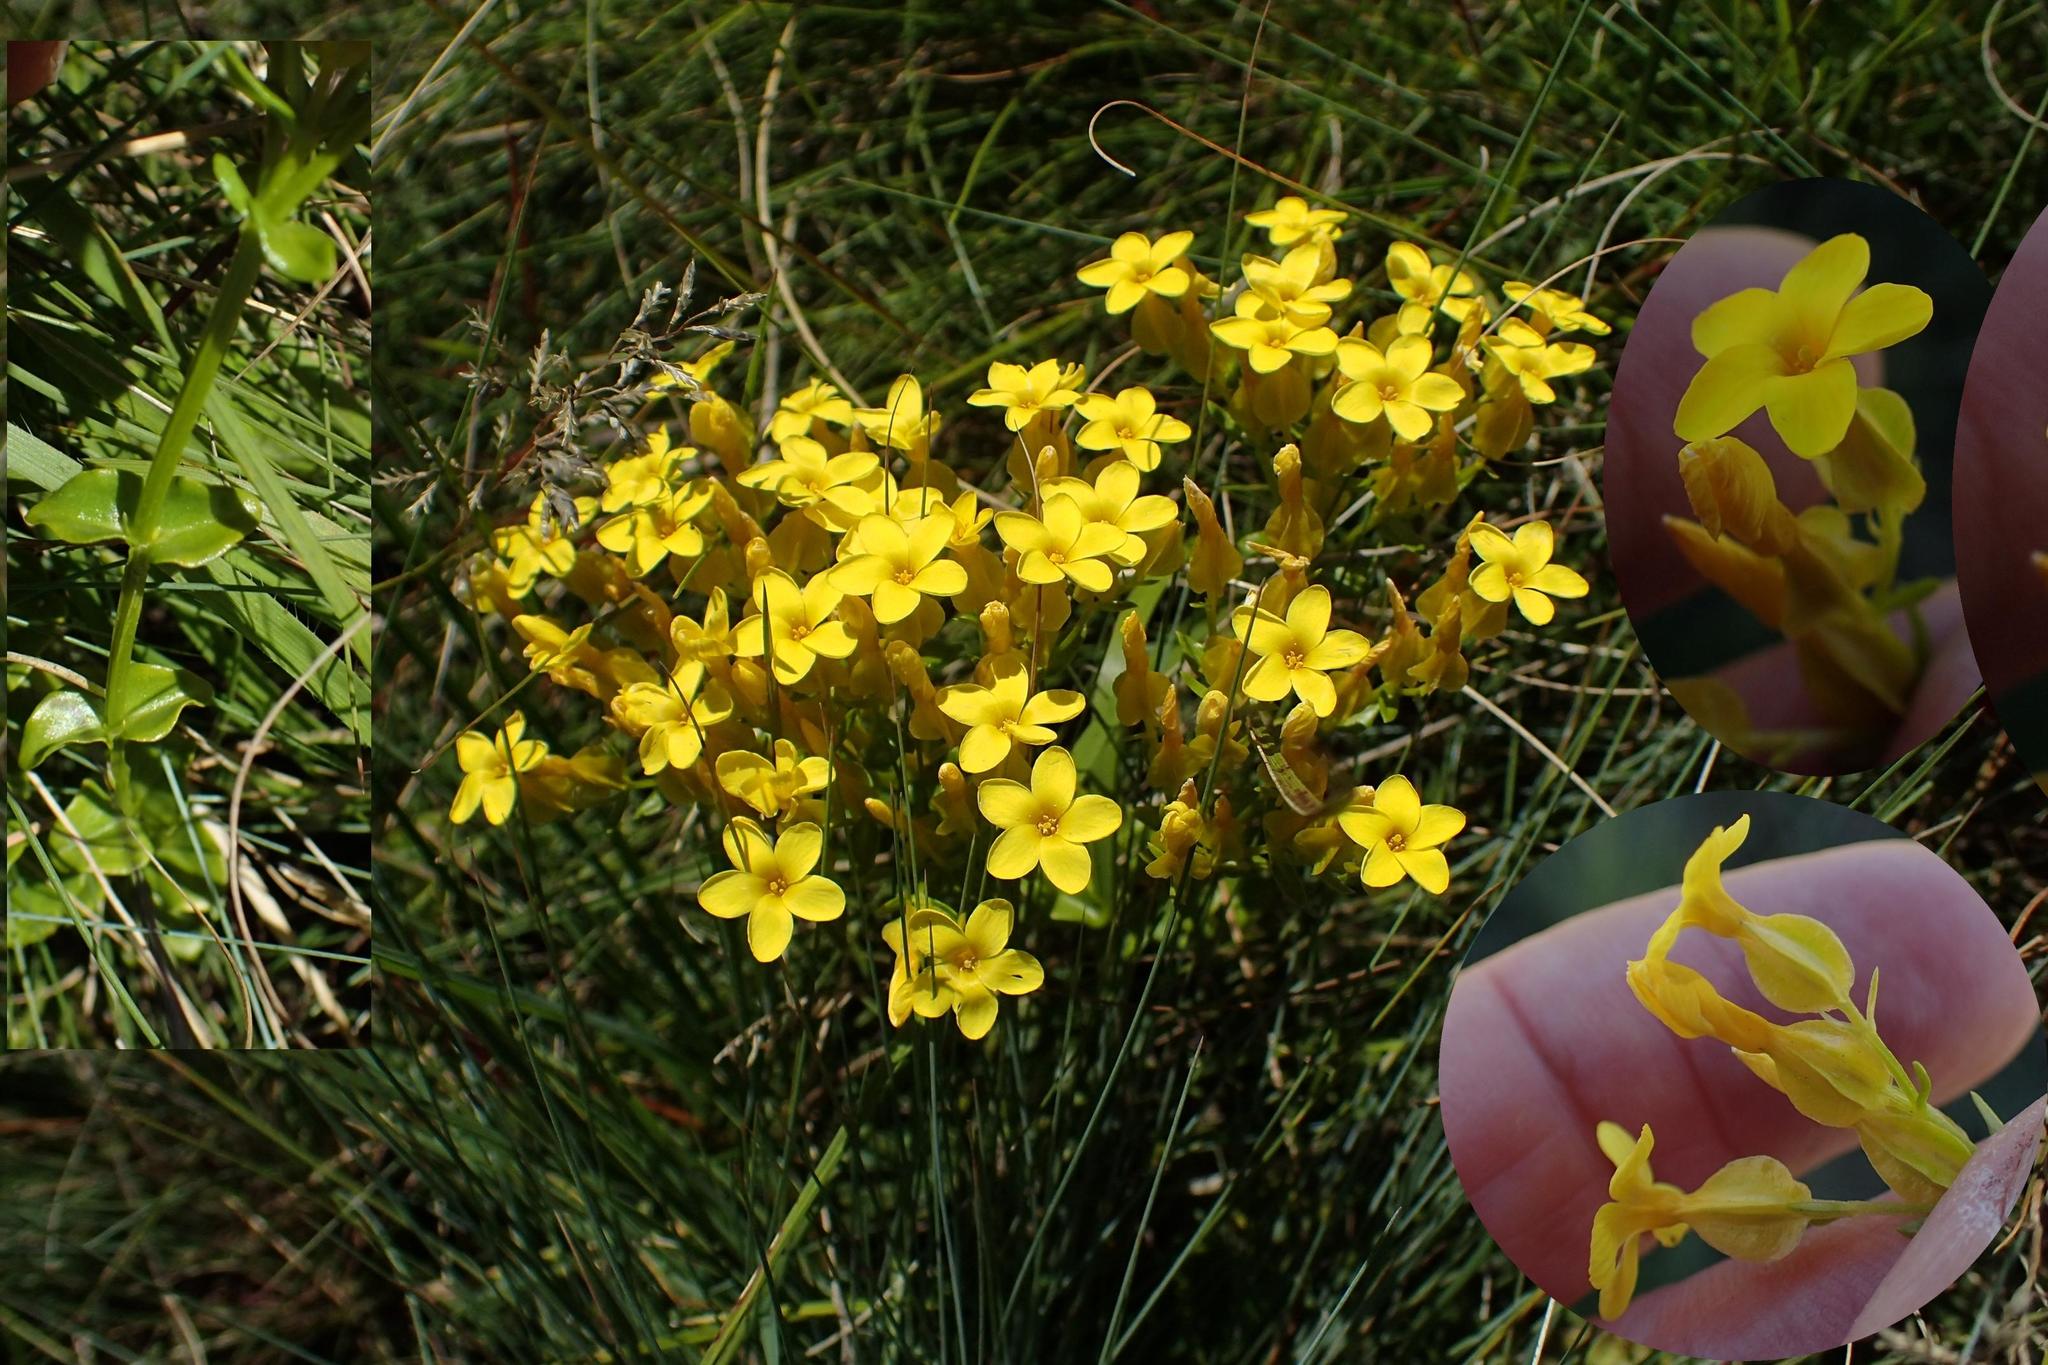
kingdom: Plantae
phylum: Tracheophyta
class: Magnoliopsida
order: Gentianales
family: Gentianaceae
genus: Sebaea
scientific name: Sebaea natalensis
